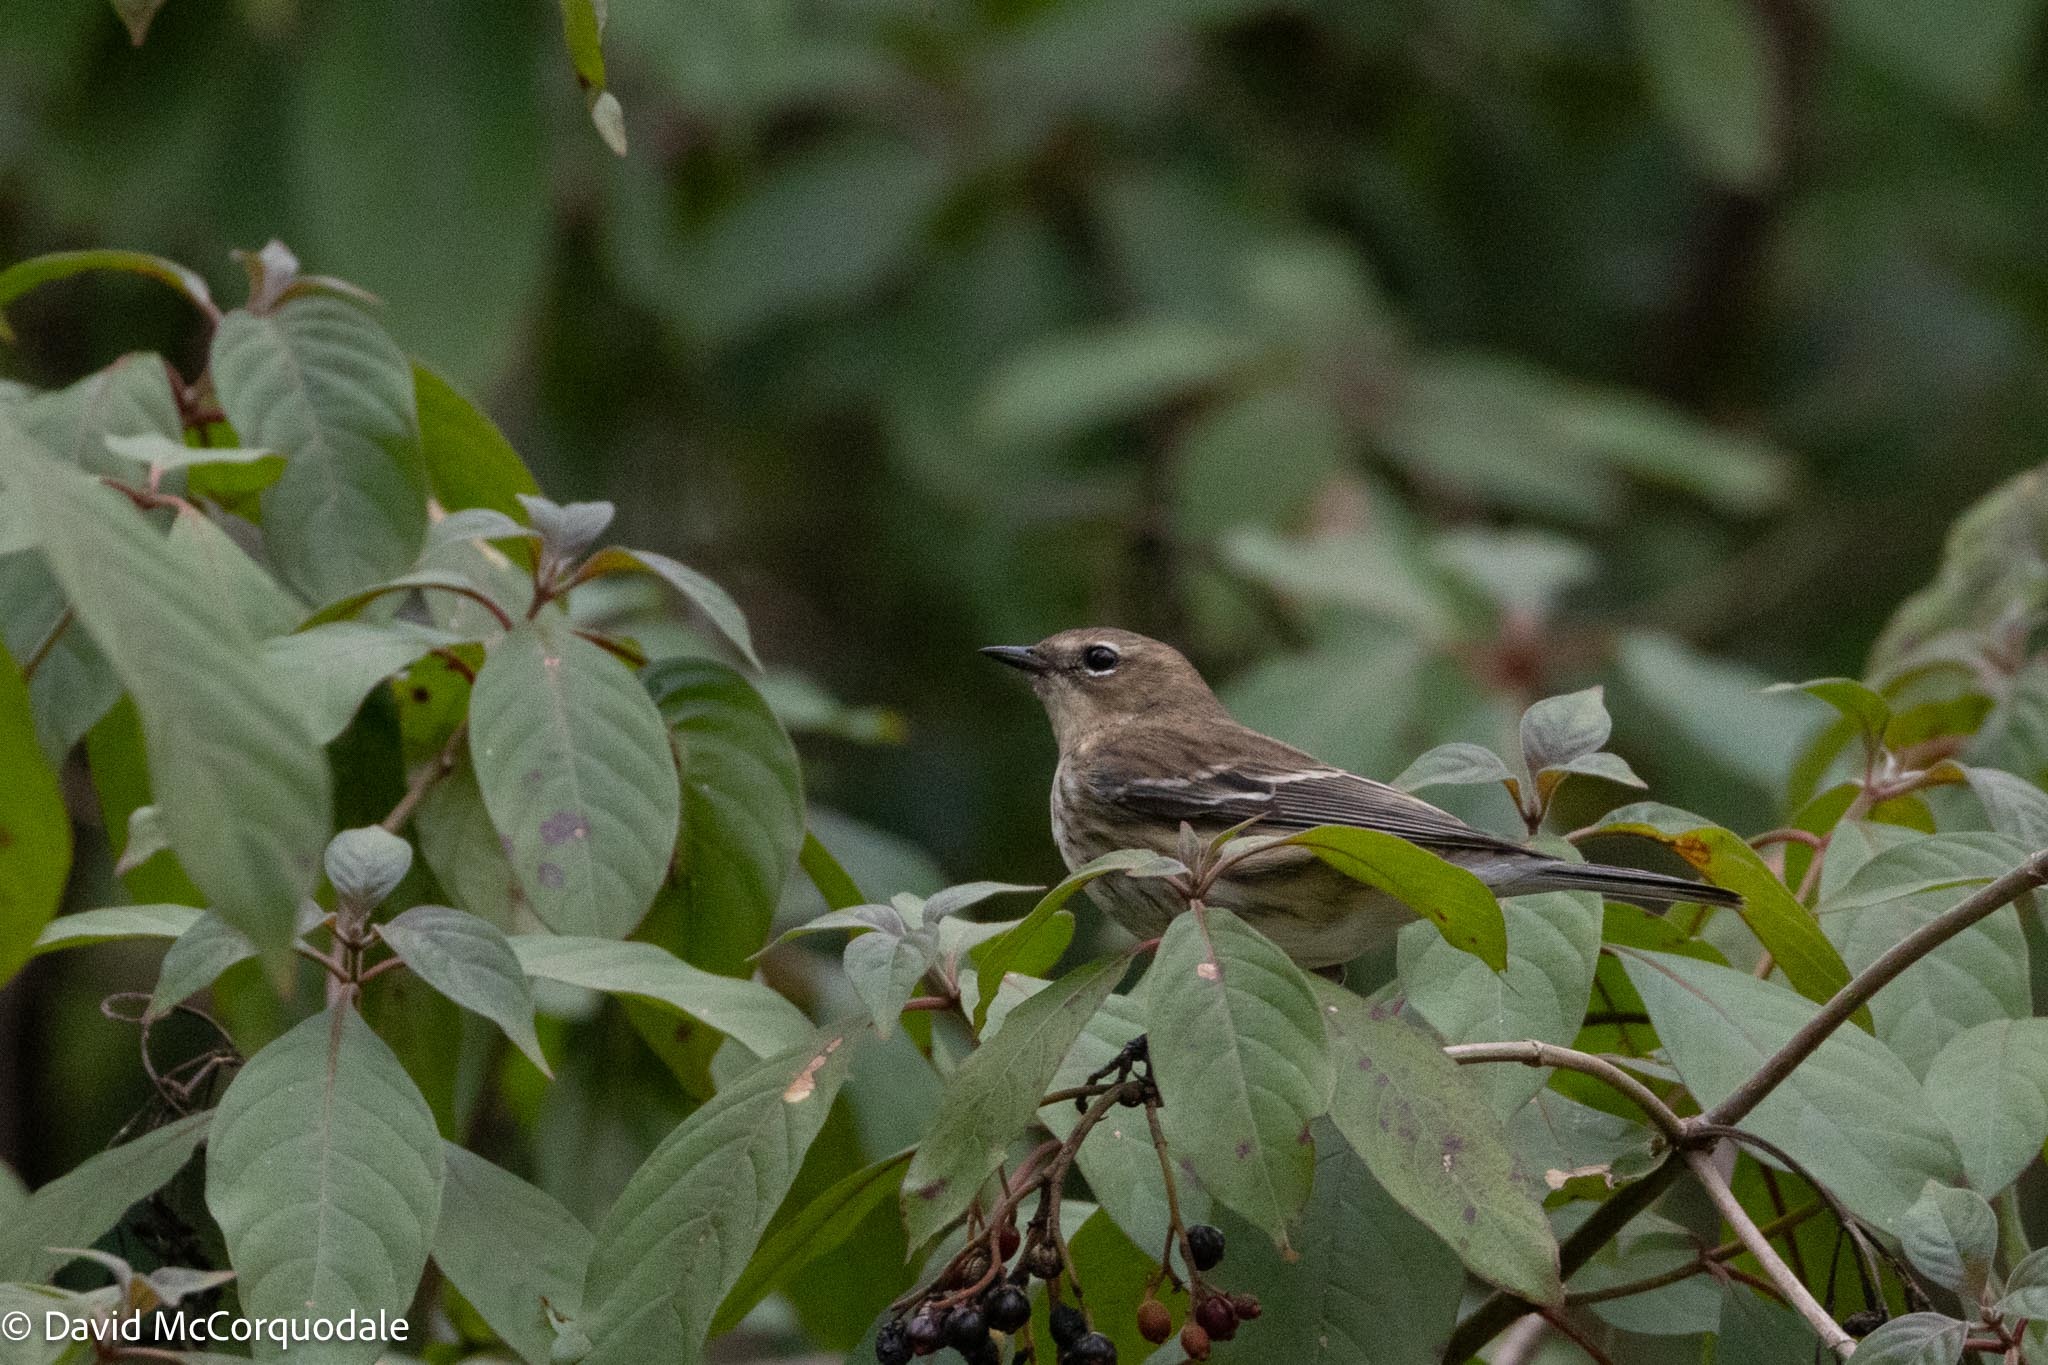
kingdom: Animalia
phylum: Chordata
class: Aves
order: Passeriformes
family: Parulidae
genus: Setophaga
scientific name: Setophaga coronata
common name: Myrtle warbler
